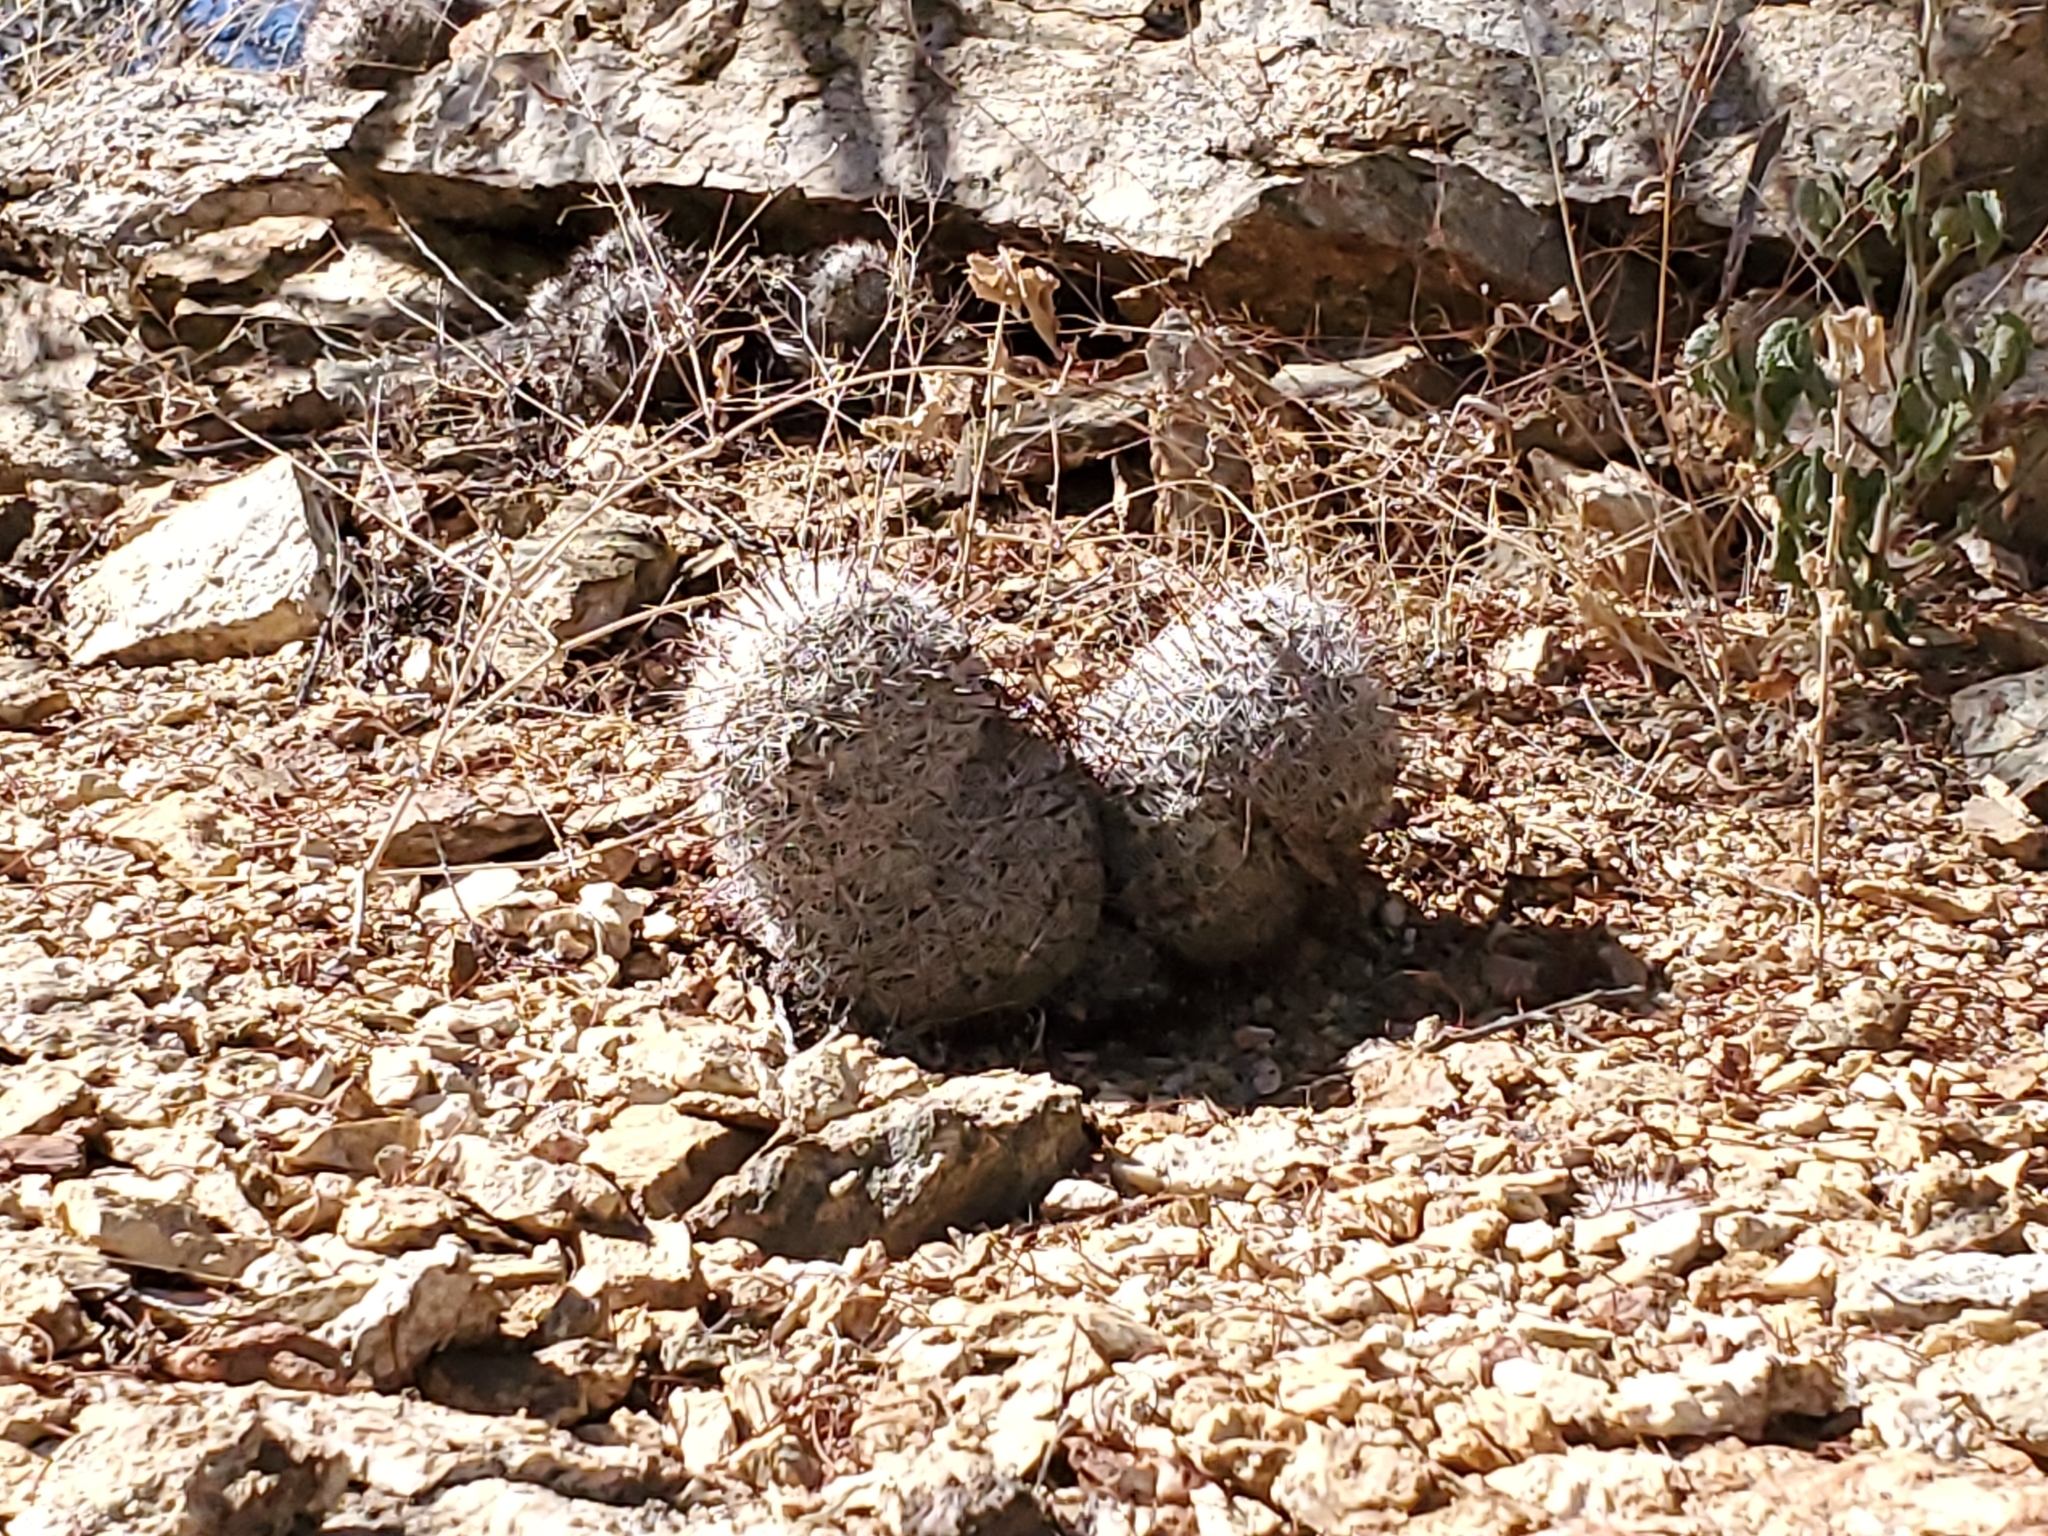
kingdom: Plantae
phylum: Tracheophyta
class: Magnoliopsida
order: Caryophyllales
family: Cactaceae
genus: Cochemiea
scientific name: Cochemiea grahamii
